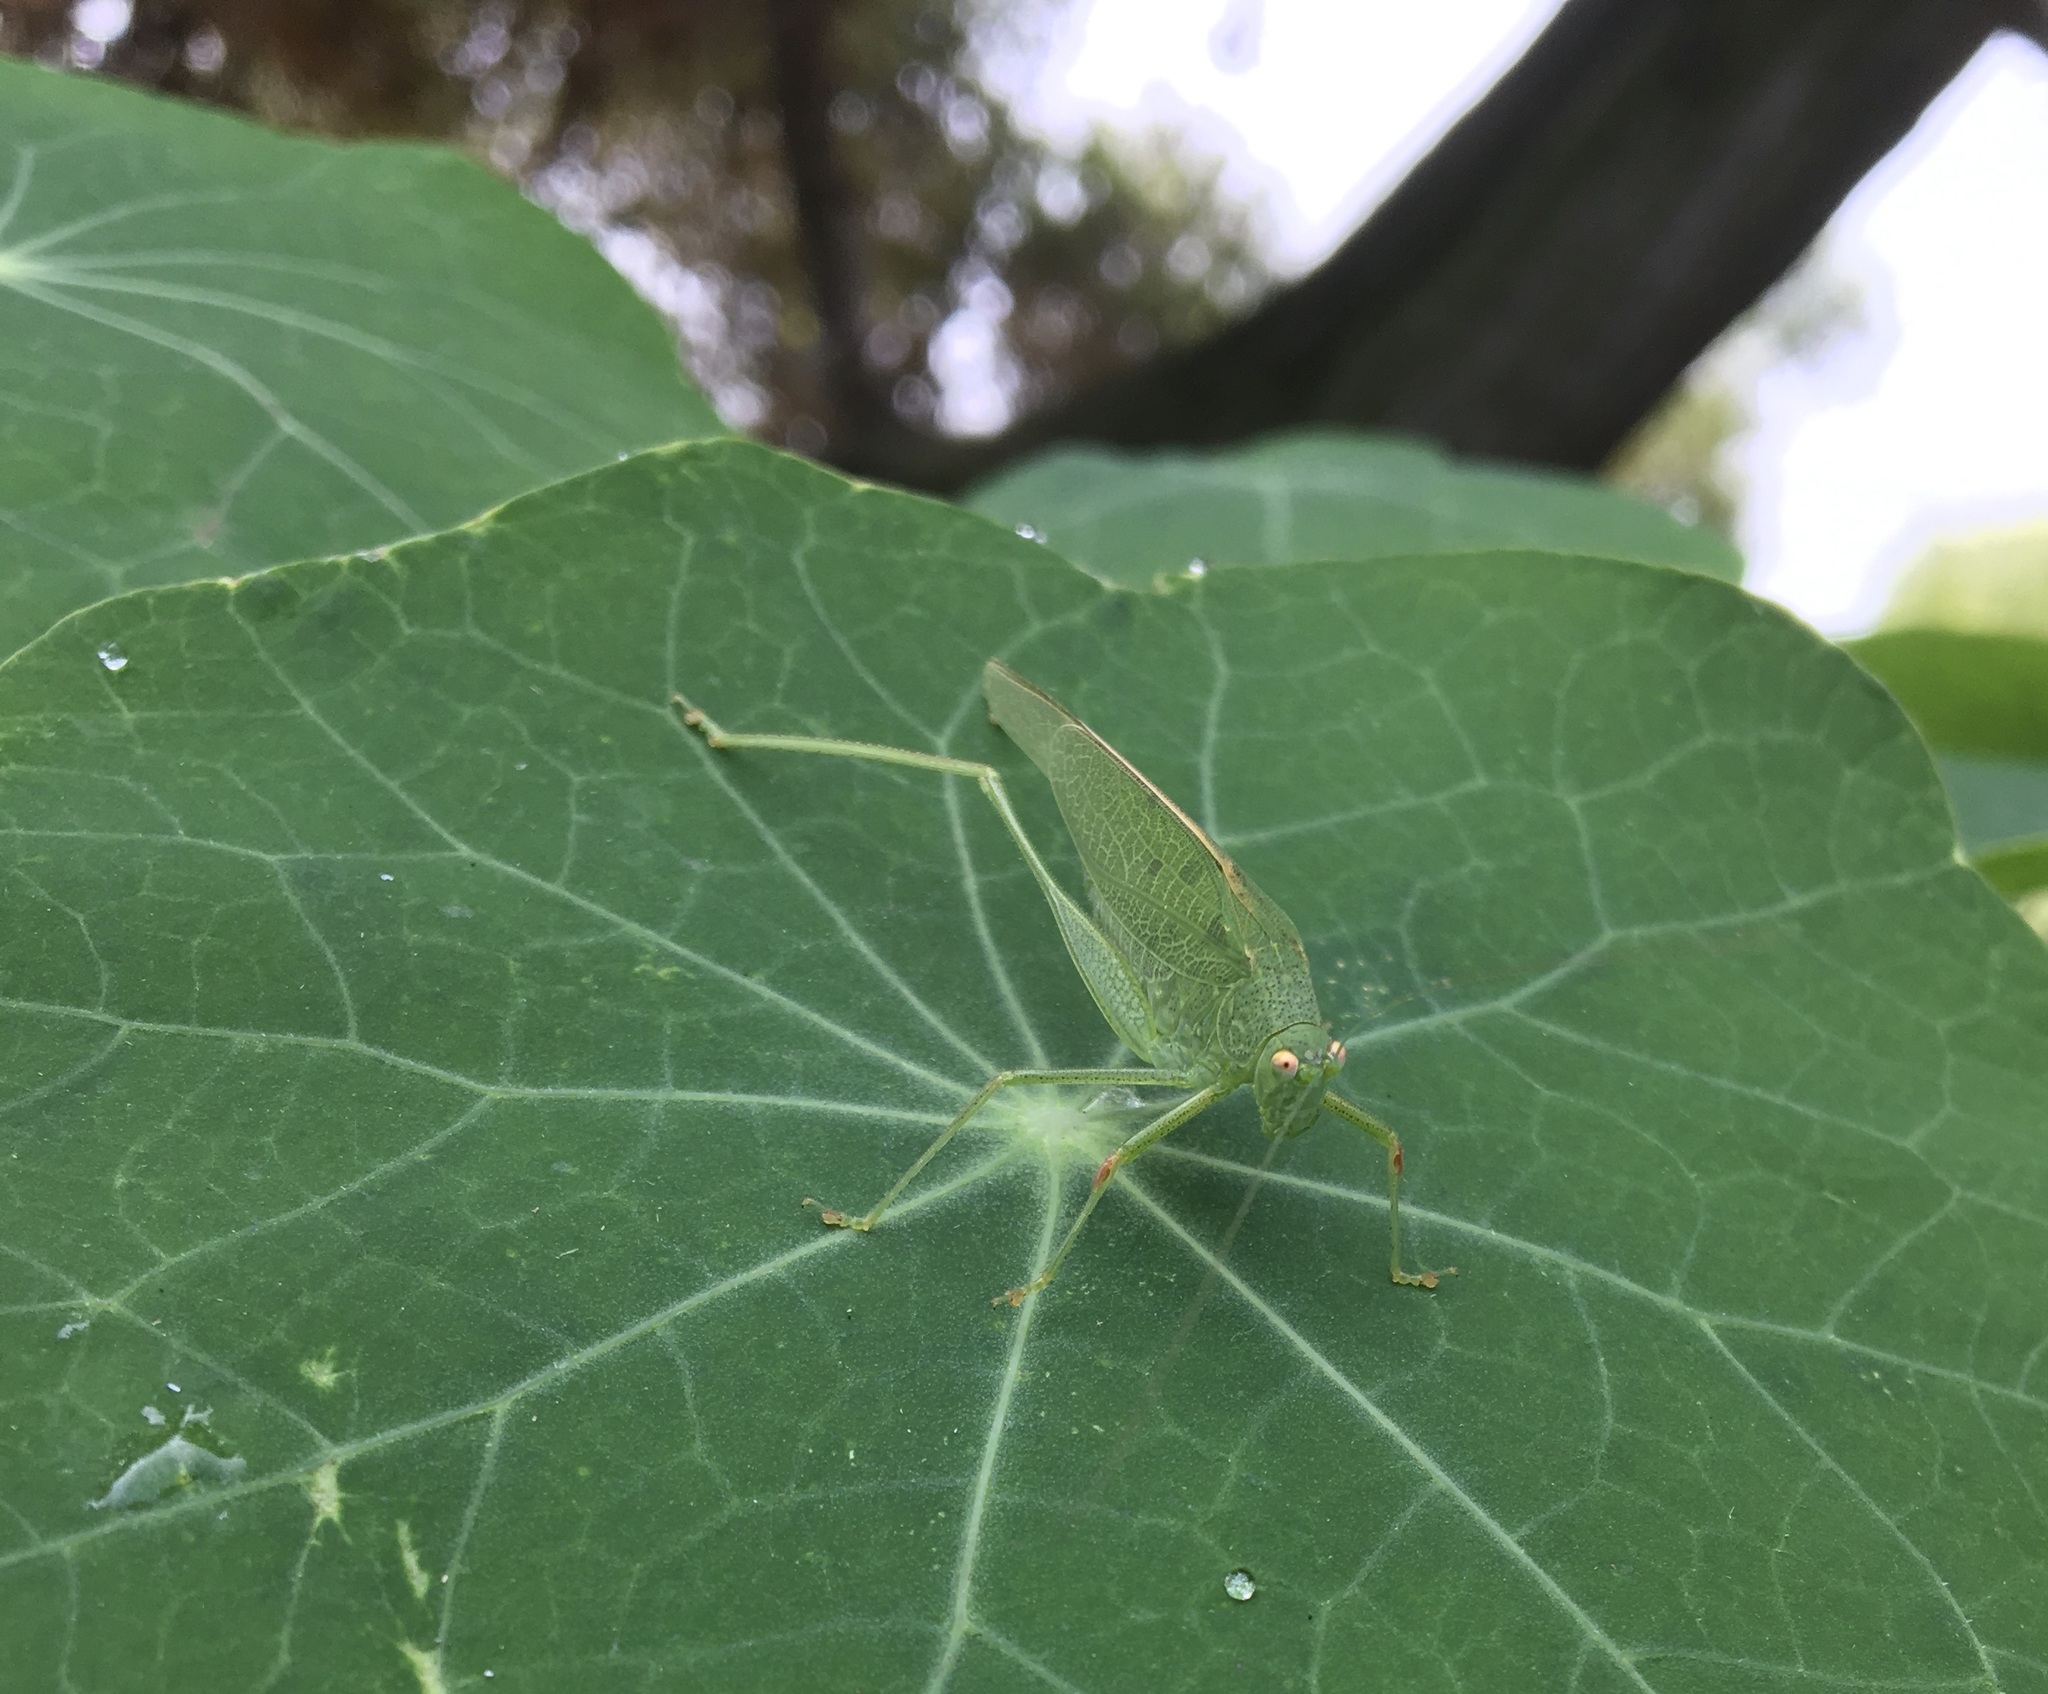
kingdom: Animalia
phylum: Arthropoda
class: Insecta
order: Orthoptera
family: Tettigoniidae
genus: Phaneroptera
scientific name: Phaneroptera nana
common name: Southern sickle bush-cricket
